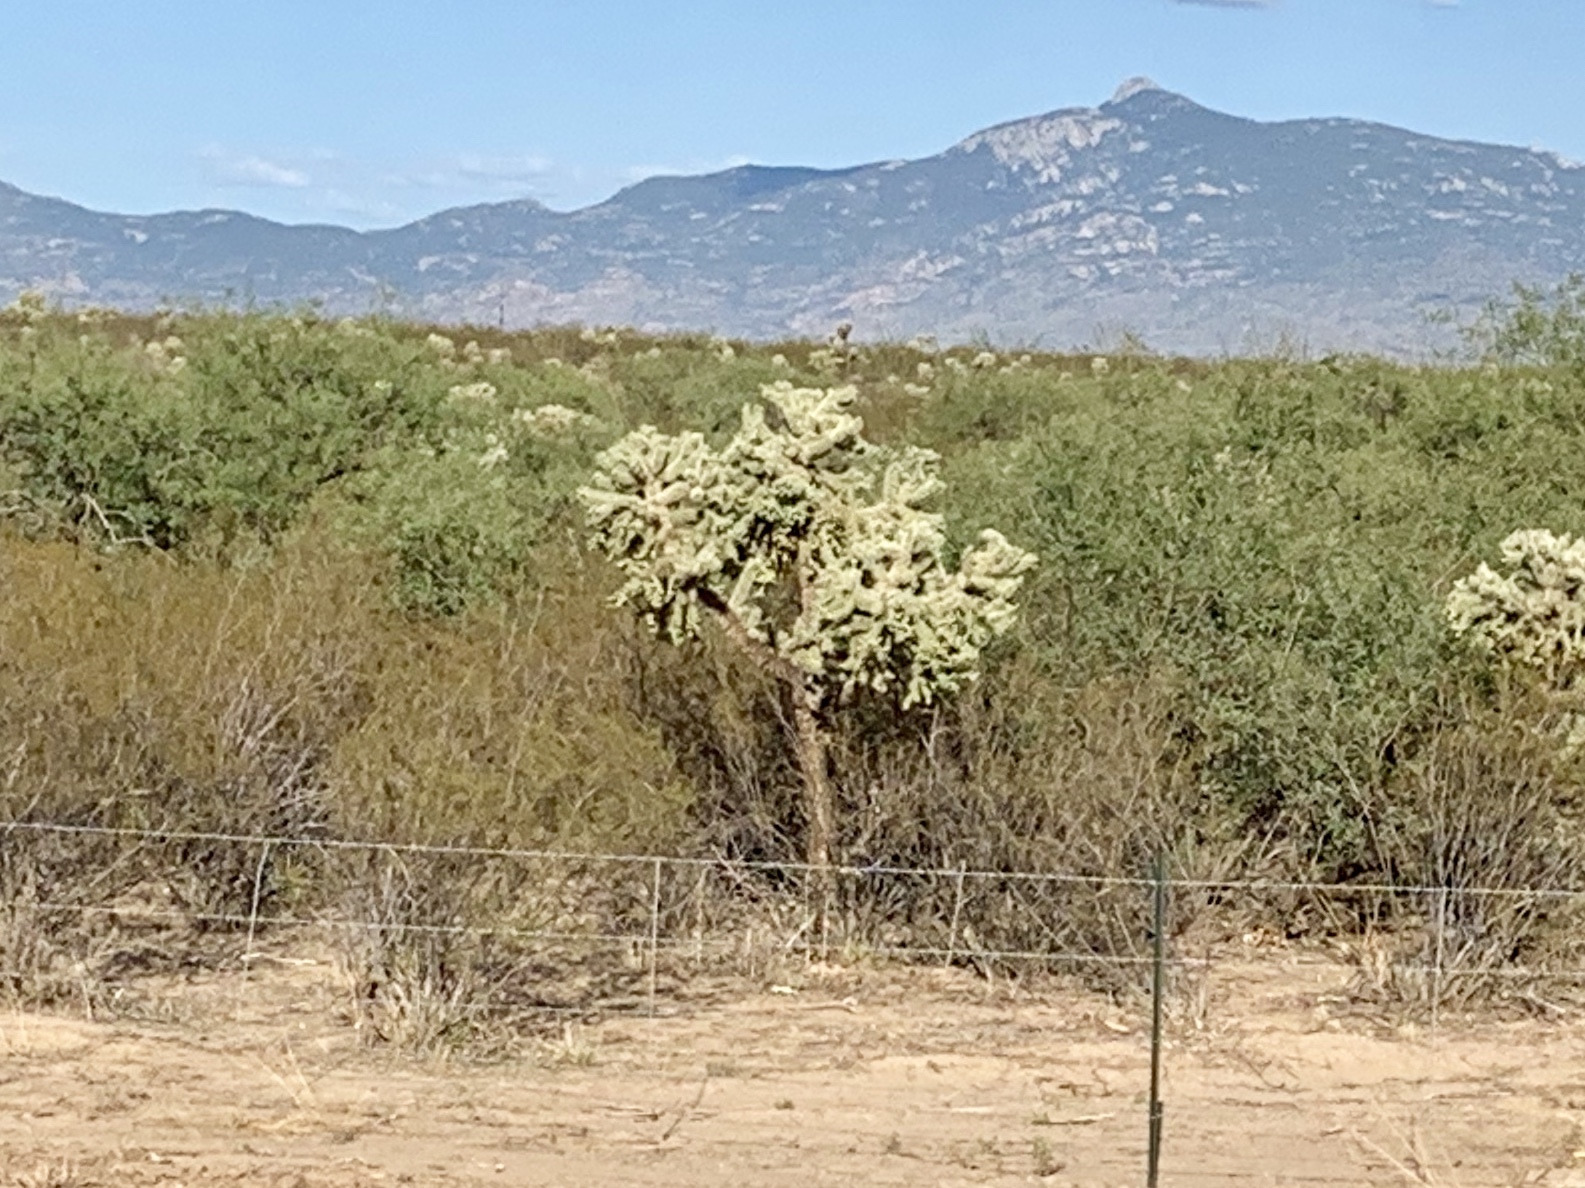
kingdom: Plantae
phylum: Tracheophyta
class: Magnoliopsida
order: Caryophyllales
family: Cactaceae
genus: Cylindropuntia
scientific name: Cylindropuntia fulgida
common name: Jumping cholla
